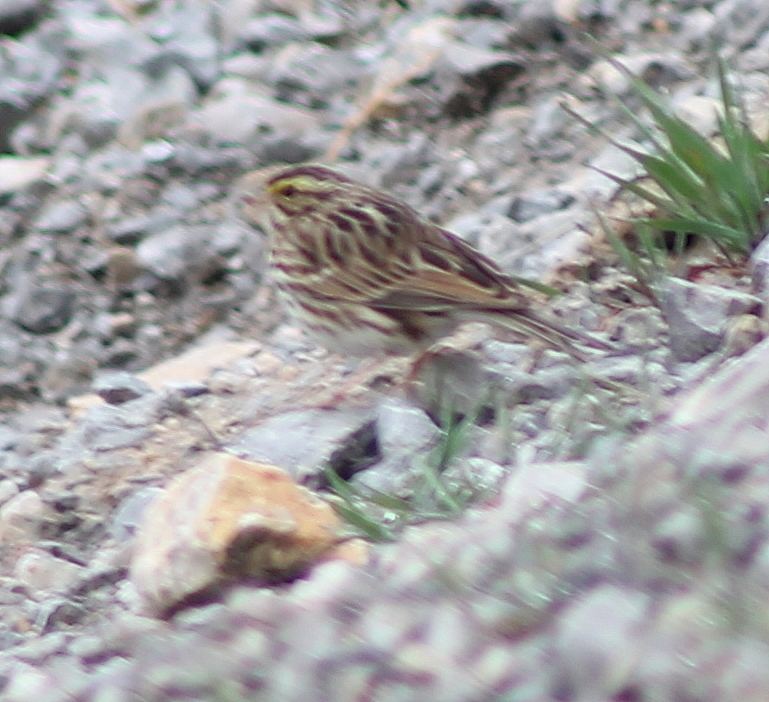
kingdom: Animalia
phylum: Chordata
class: Aves
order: Passeriformes
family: Passerellidae
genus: Passerculus
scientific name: Passerculus sandwichensis
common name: Savannah sparrow
